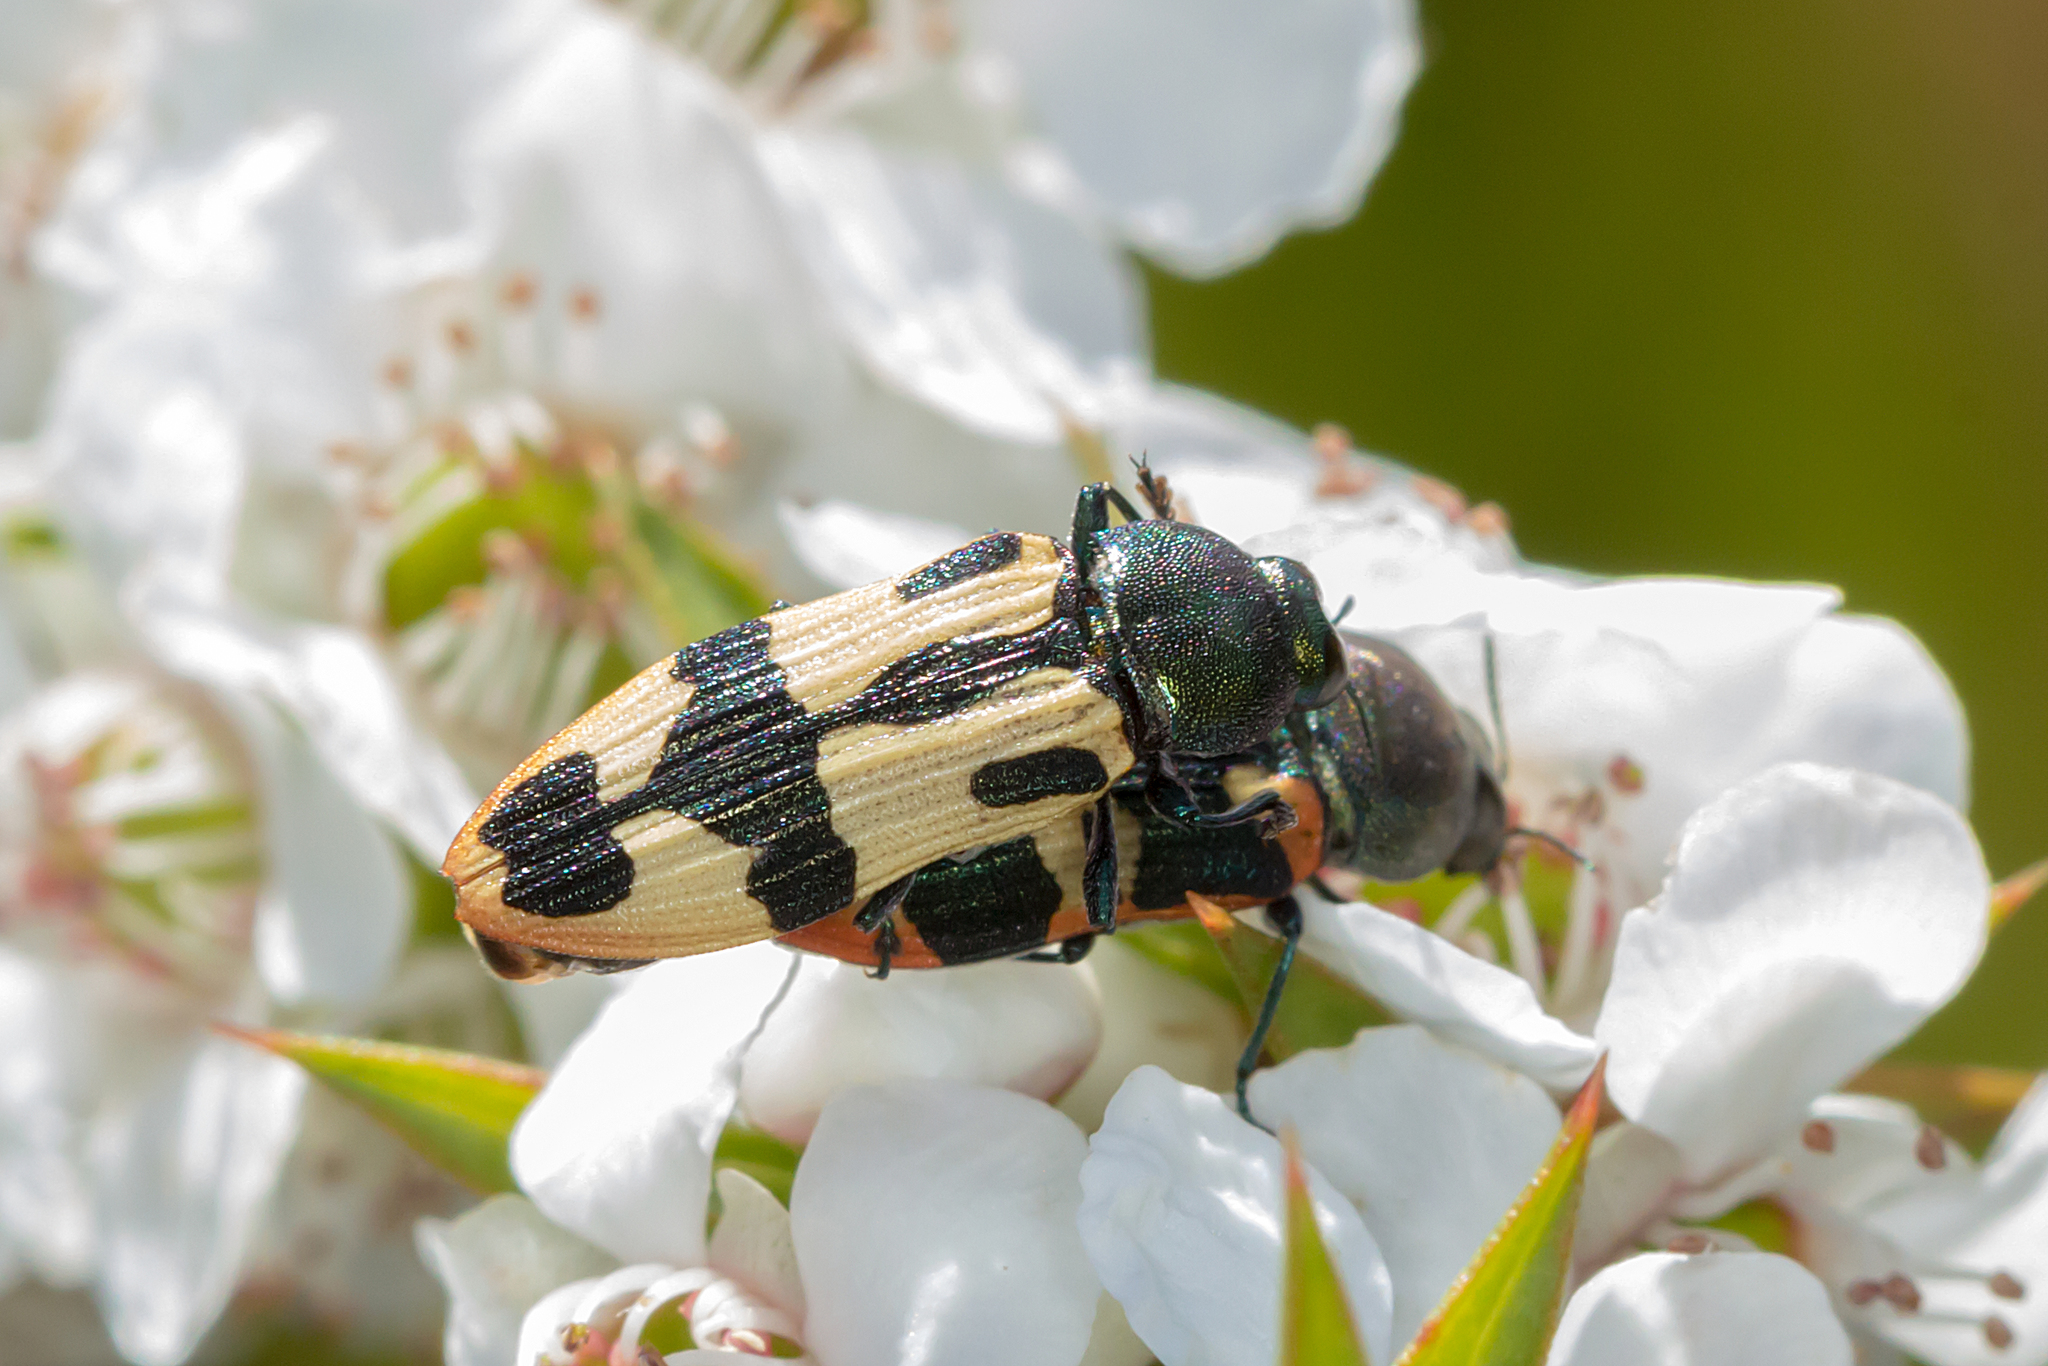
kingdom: Animalia
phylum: Arthropoda
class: Insecta
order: Coleoptera
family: Buprestidae
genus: Castiarina
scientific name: Castiarina interstitialis
